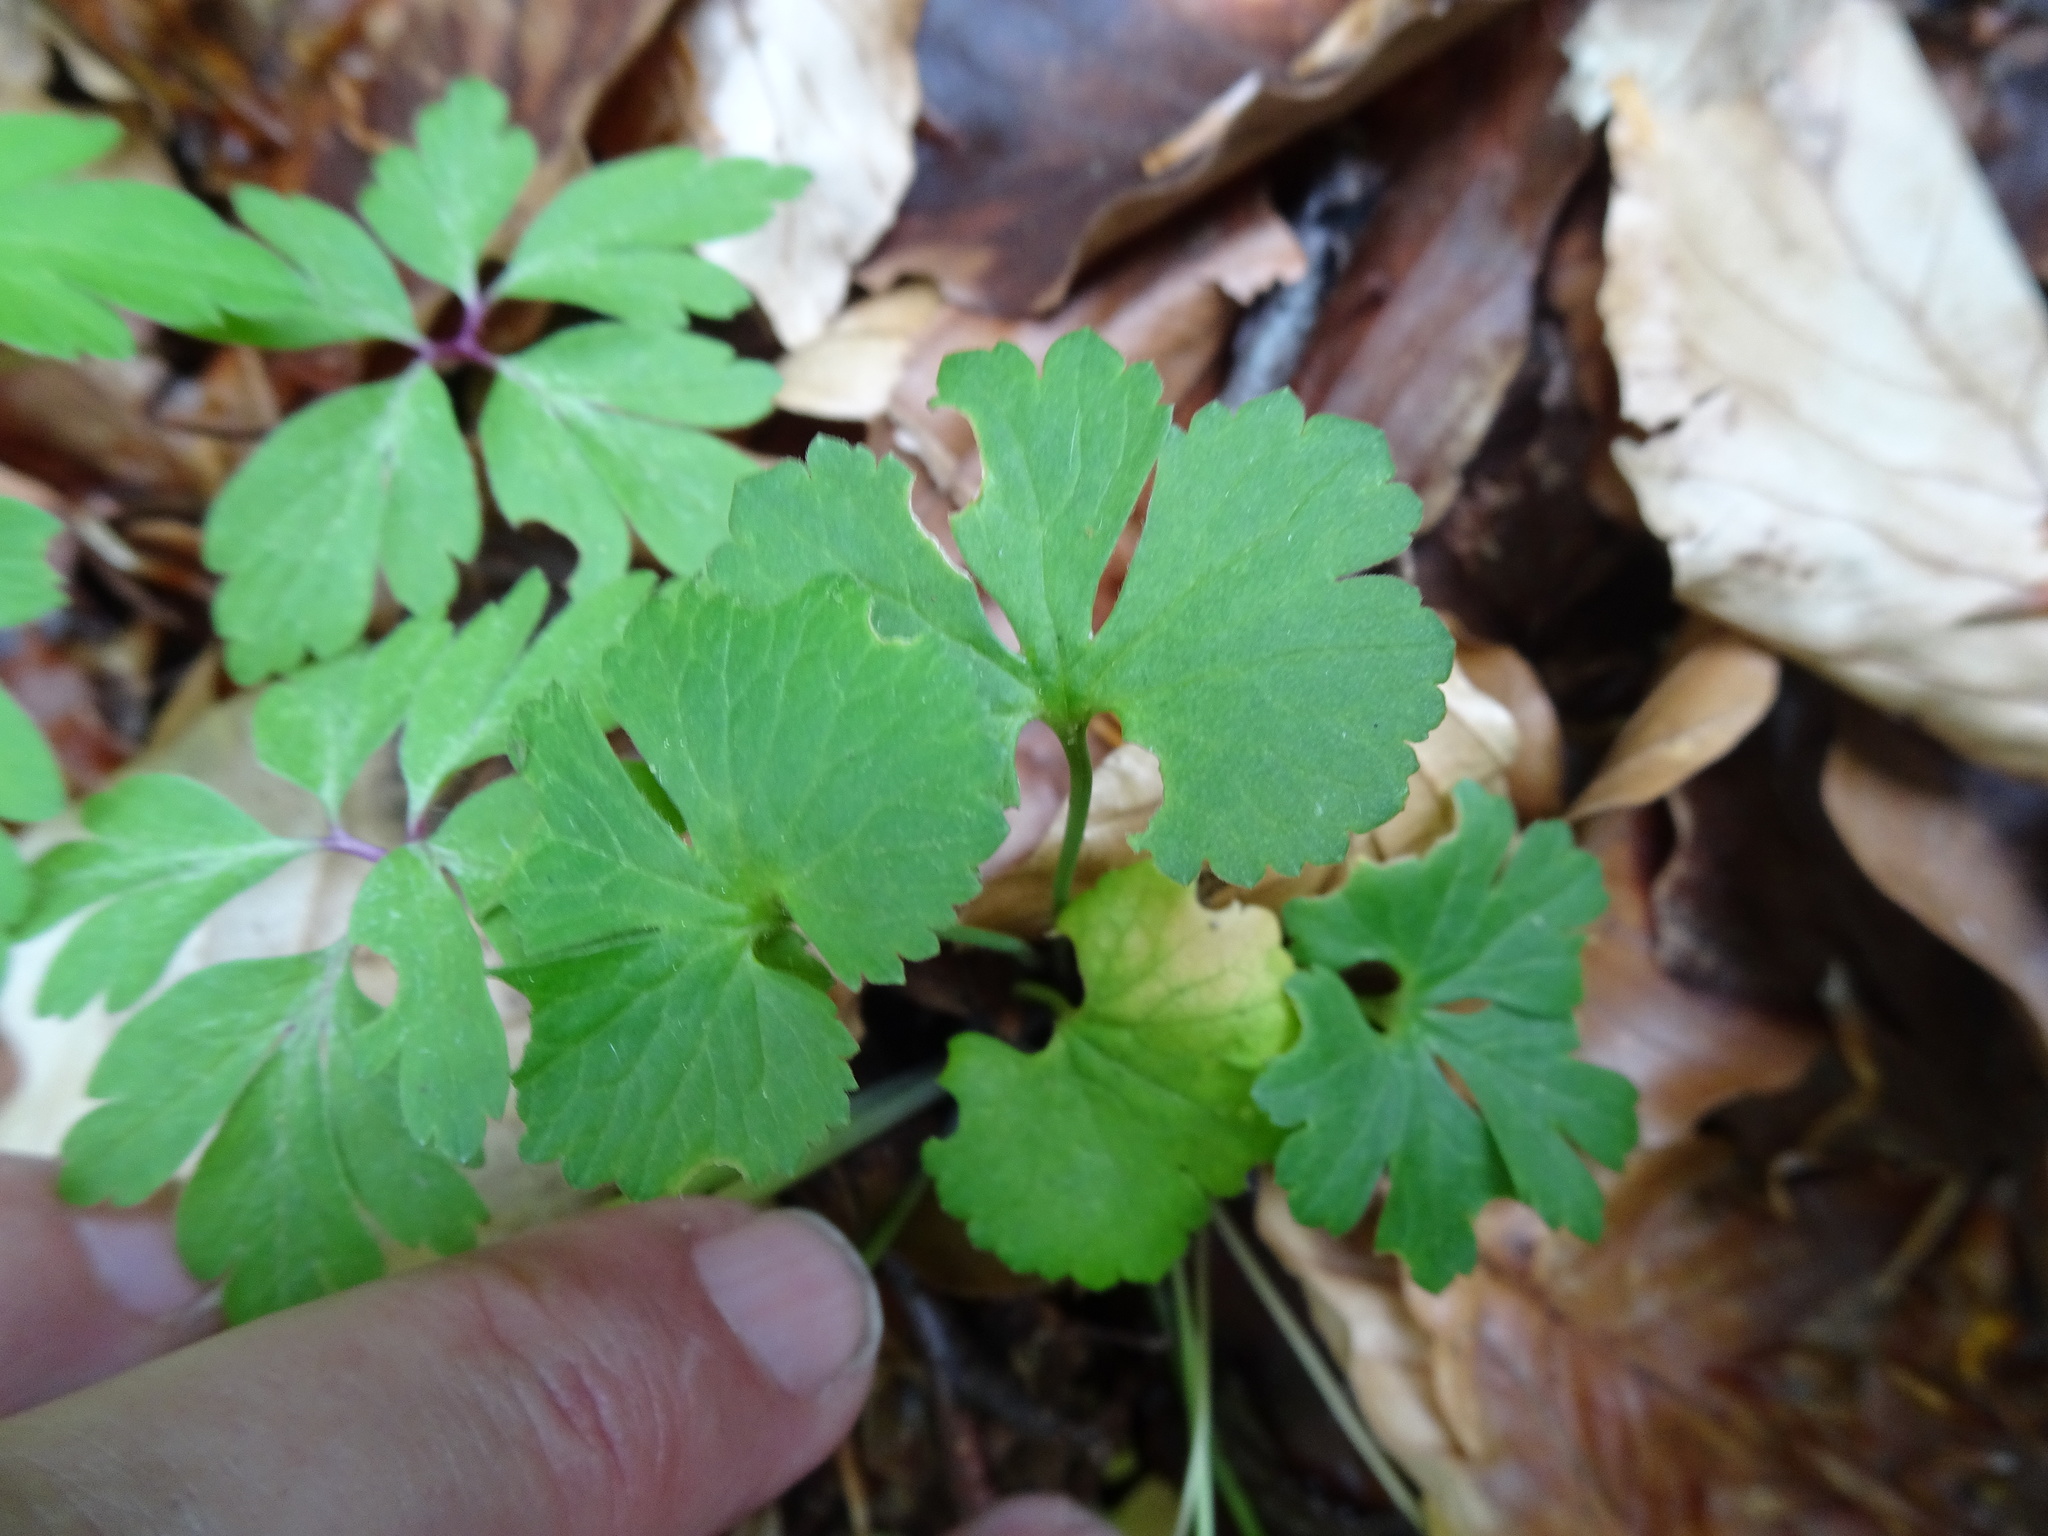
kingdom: Plantae
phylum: Tracheophyta
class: Magnoliopsida
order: Ranunculales
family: Ranunculaceae
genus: Ranunculus
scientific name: Ranunculus auricomus
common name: Goldilocks buttercup
